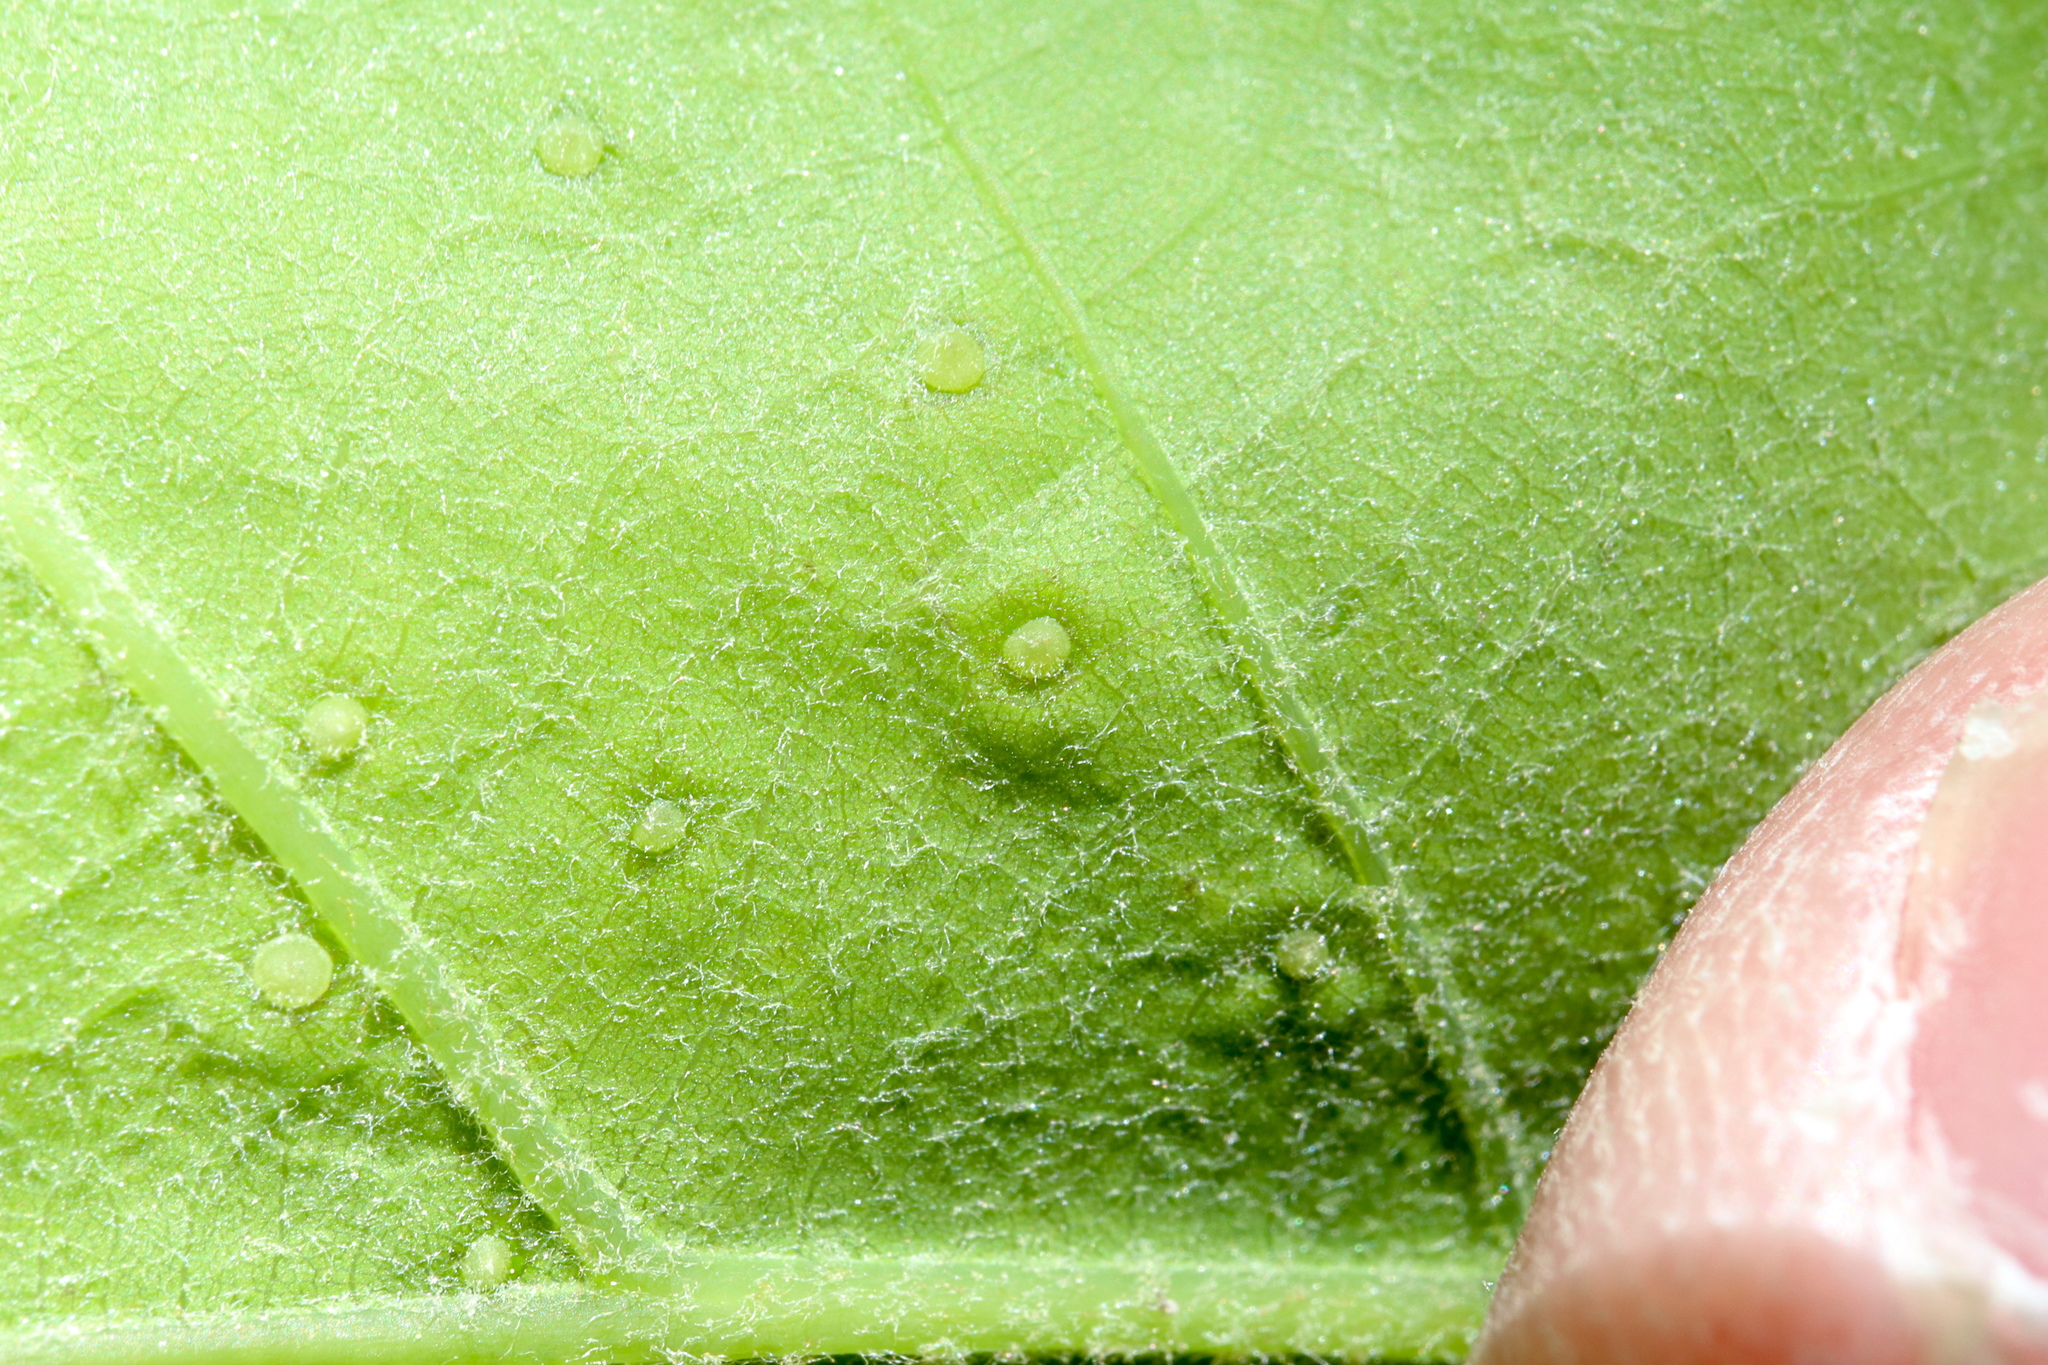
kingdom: Animalia
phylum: Arthropoda
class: Insecta
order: Hymenoptera
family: Cynipidae
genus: Neuroterus
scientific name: Neuroterus
